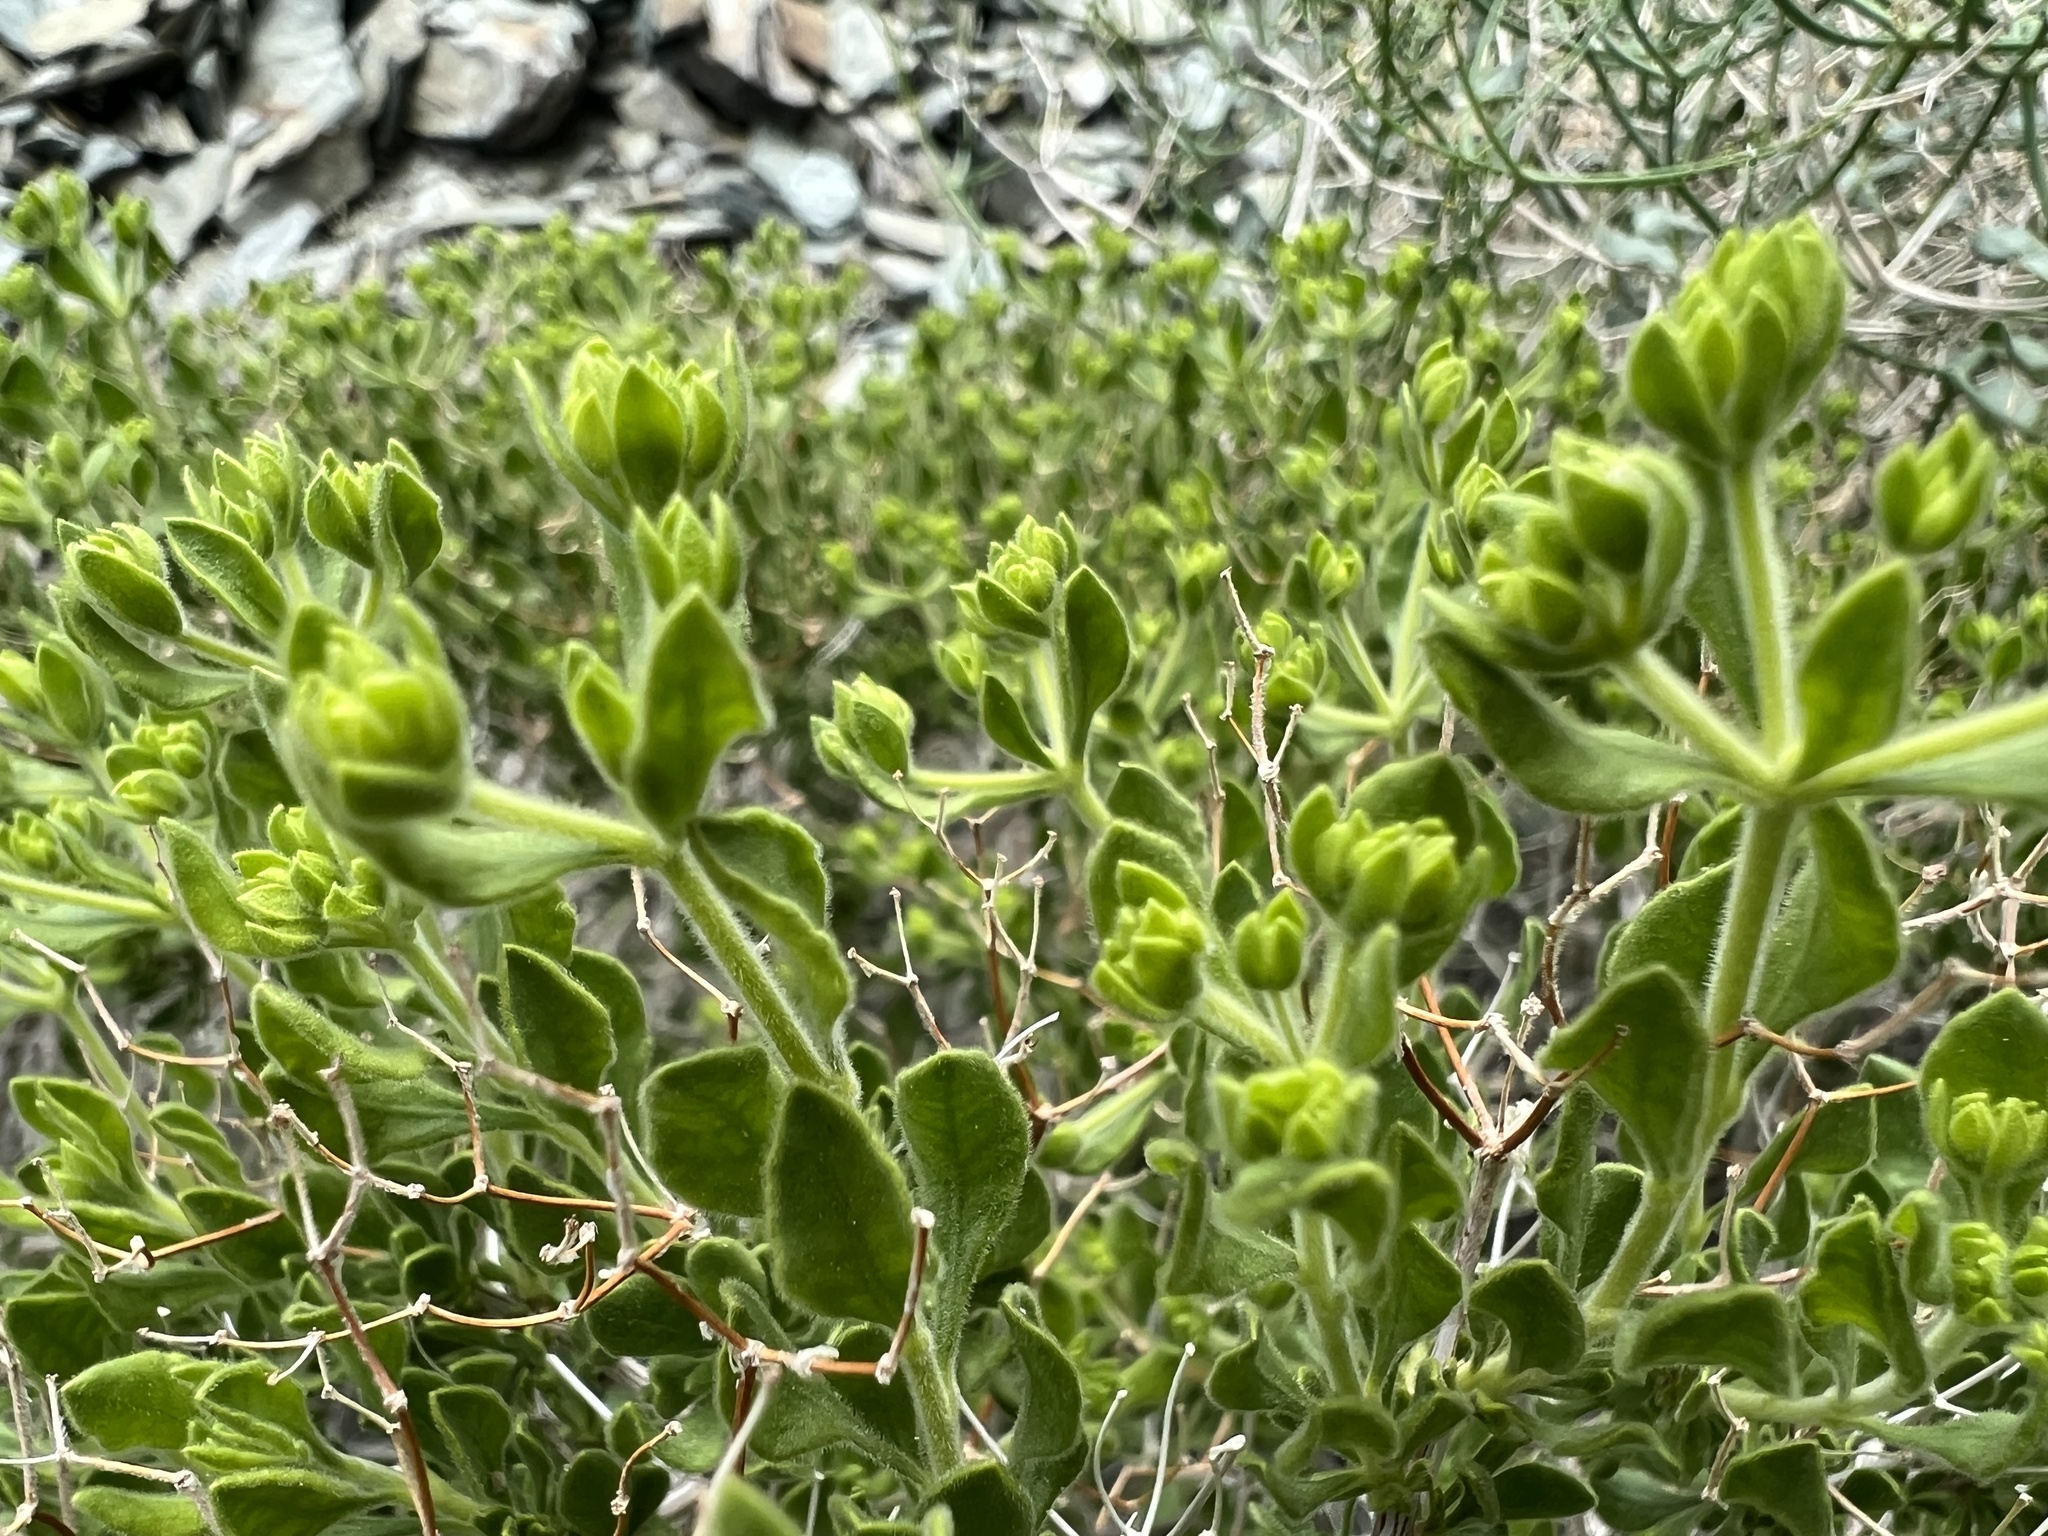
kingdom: Plantae
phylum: Tracheophyta
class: Magnoliopsida
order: Caryophyllales
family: Polygonaceae
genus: Dedeckera
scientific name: Dedeckera eurekensis
